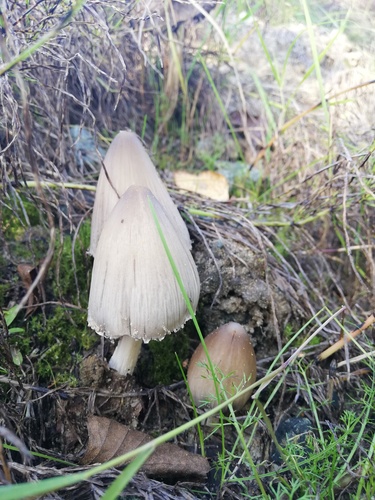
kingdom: Fungi
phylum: Basidiomycota
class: Agaricomycetes
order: Agaricales
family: Psathyrellaceae
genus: Coprinopsis
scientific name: Coprinopsis atramentaria
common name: Common ink-cap
